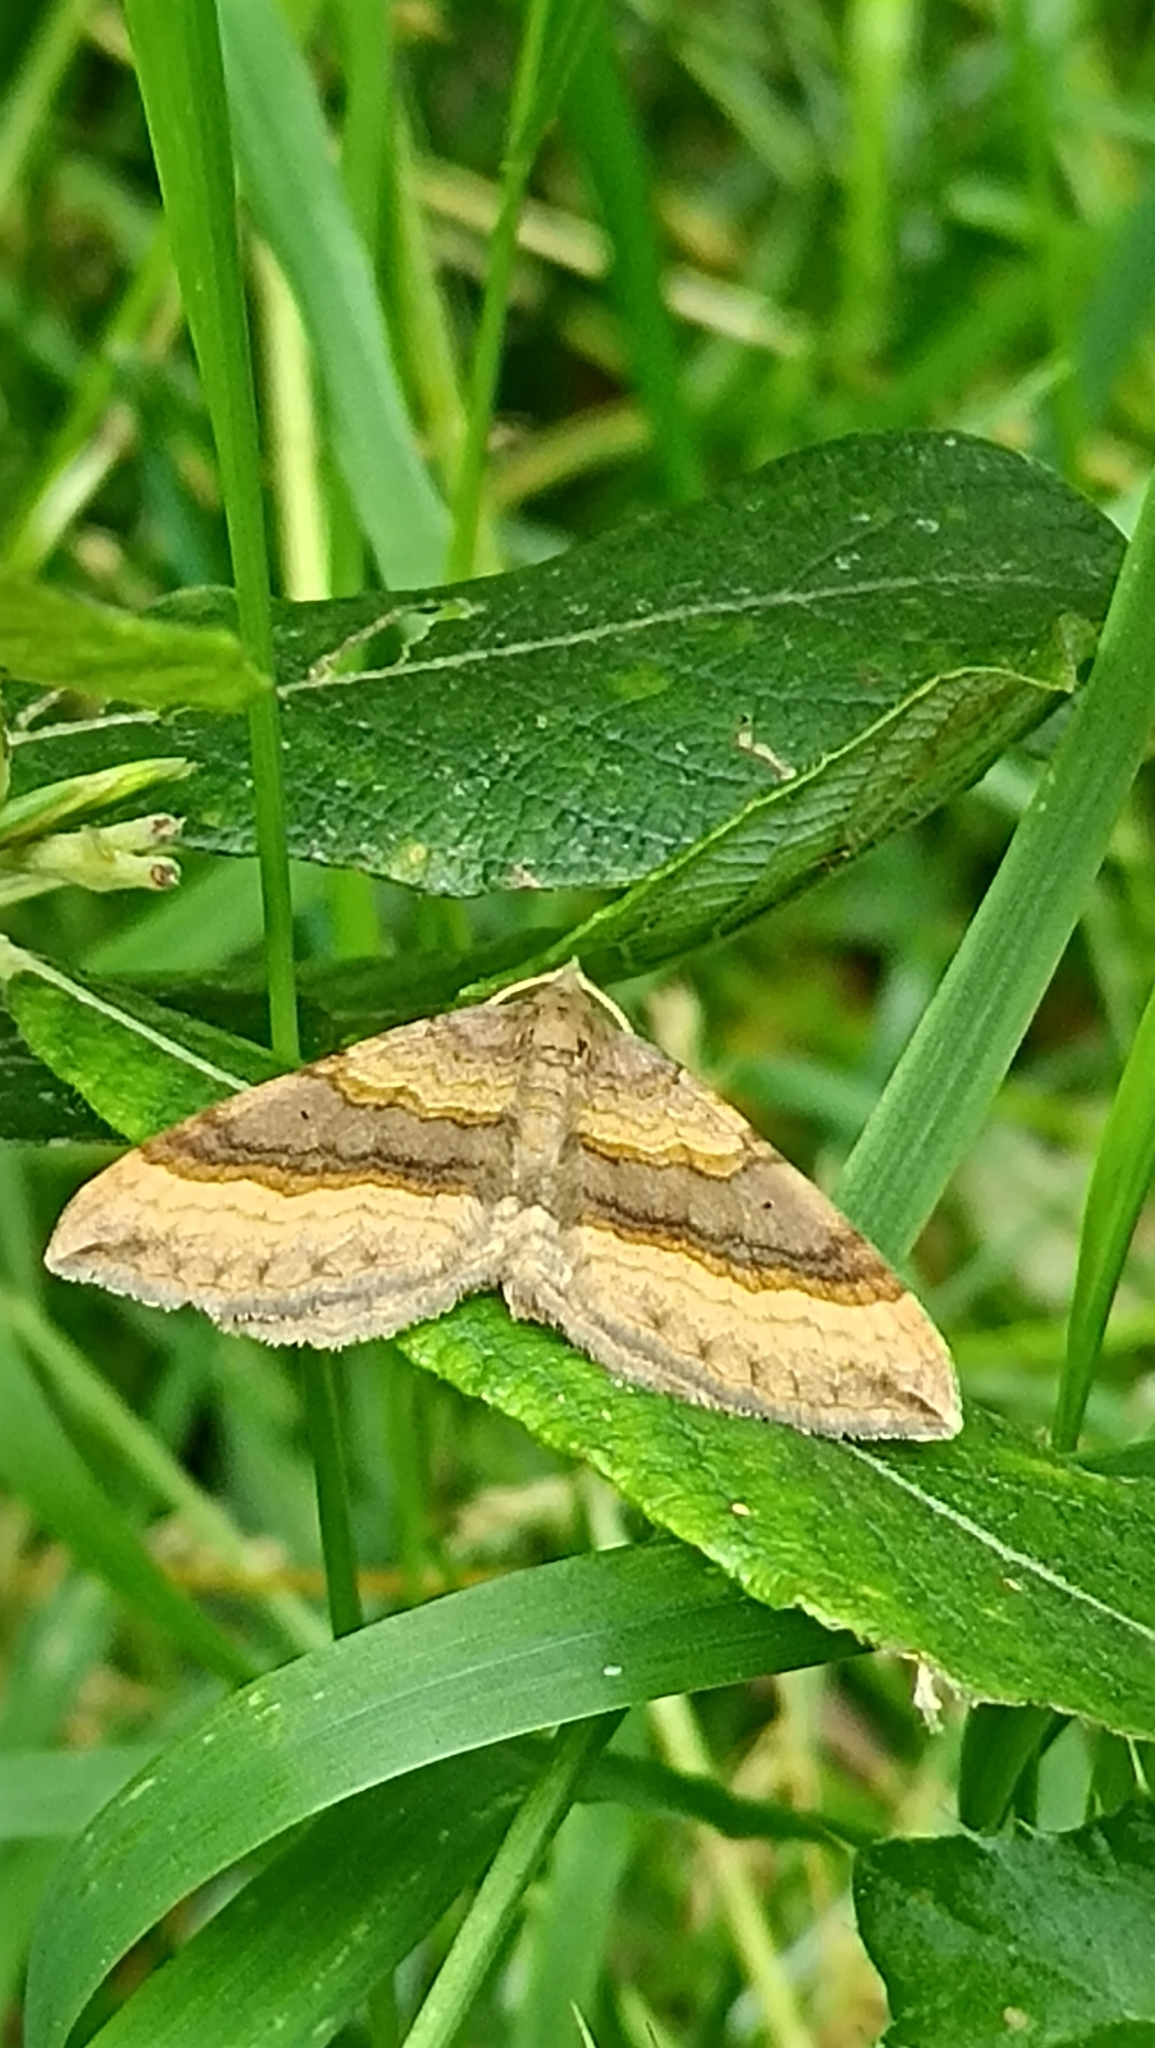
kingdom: Animalia
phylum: Arthropoda
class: Insecta
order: Lepidoptera
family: Geometridae
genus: Scotopteryx
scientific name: Scotopteryx chenopodiata
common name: Shaded broad-bar
